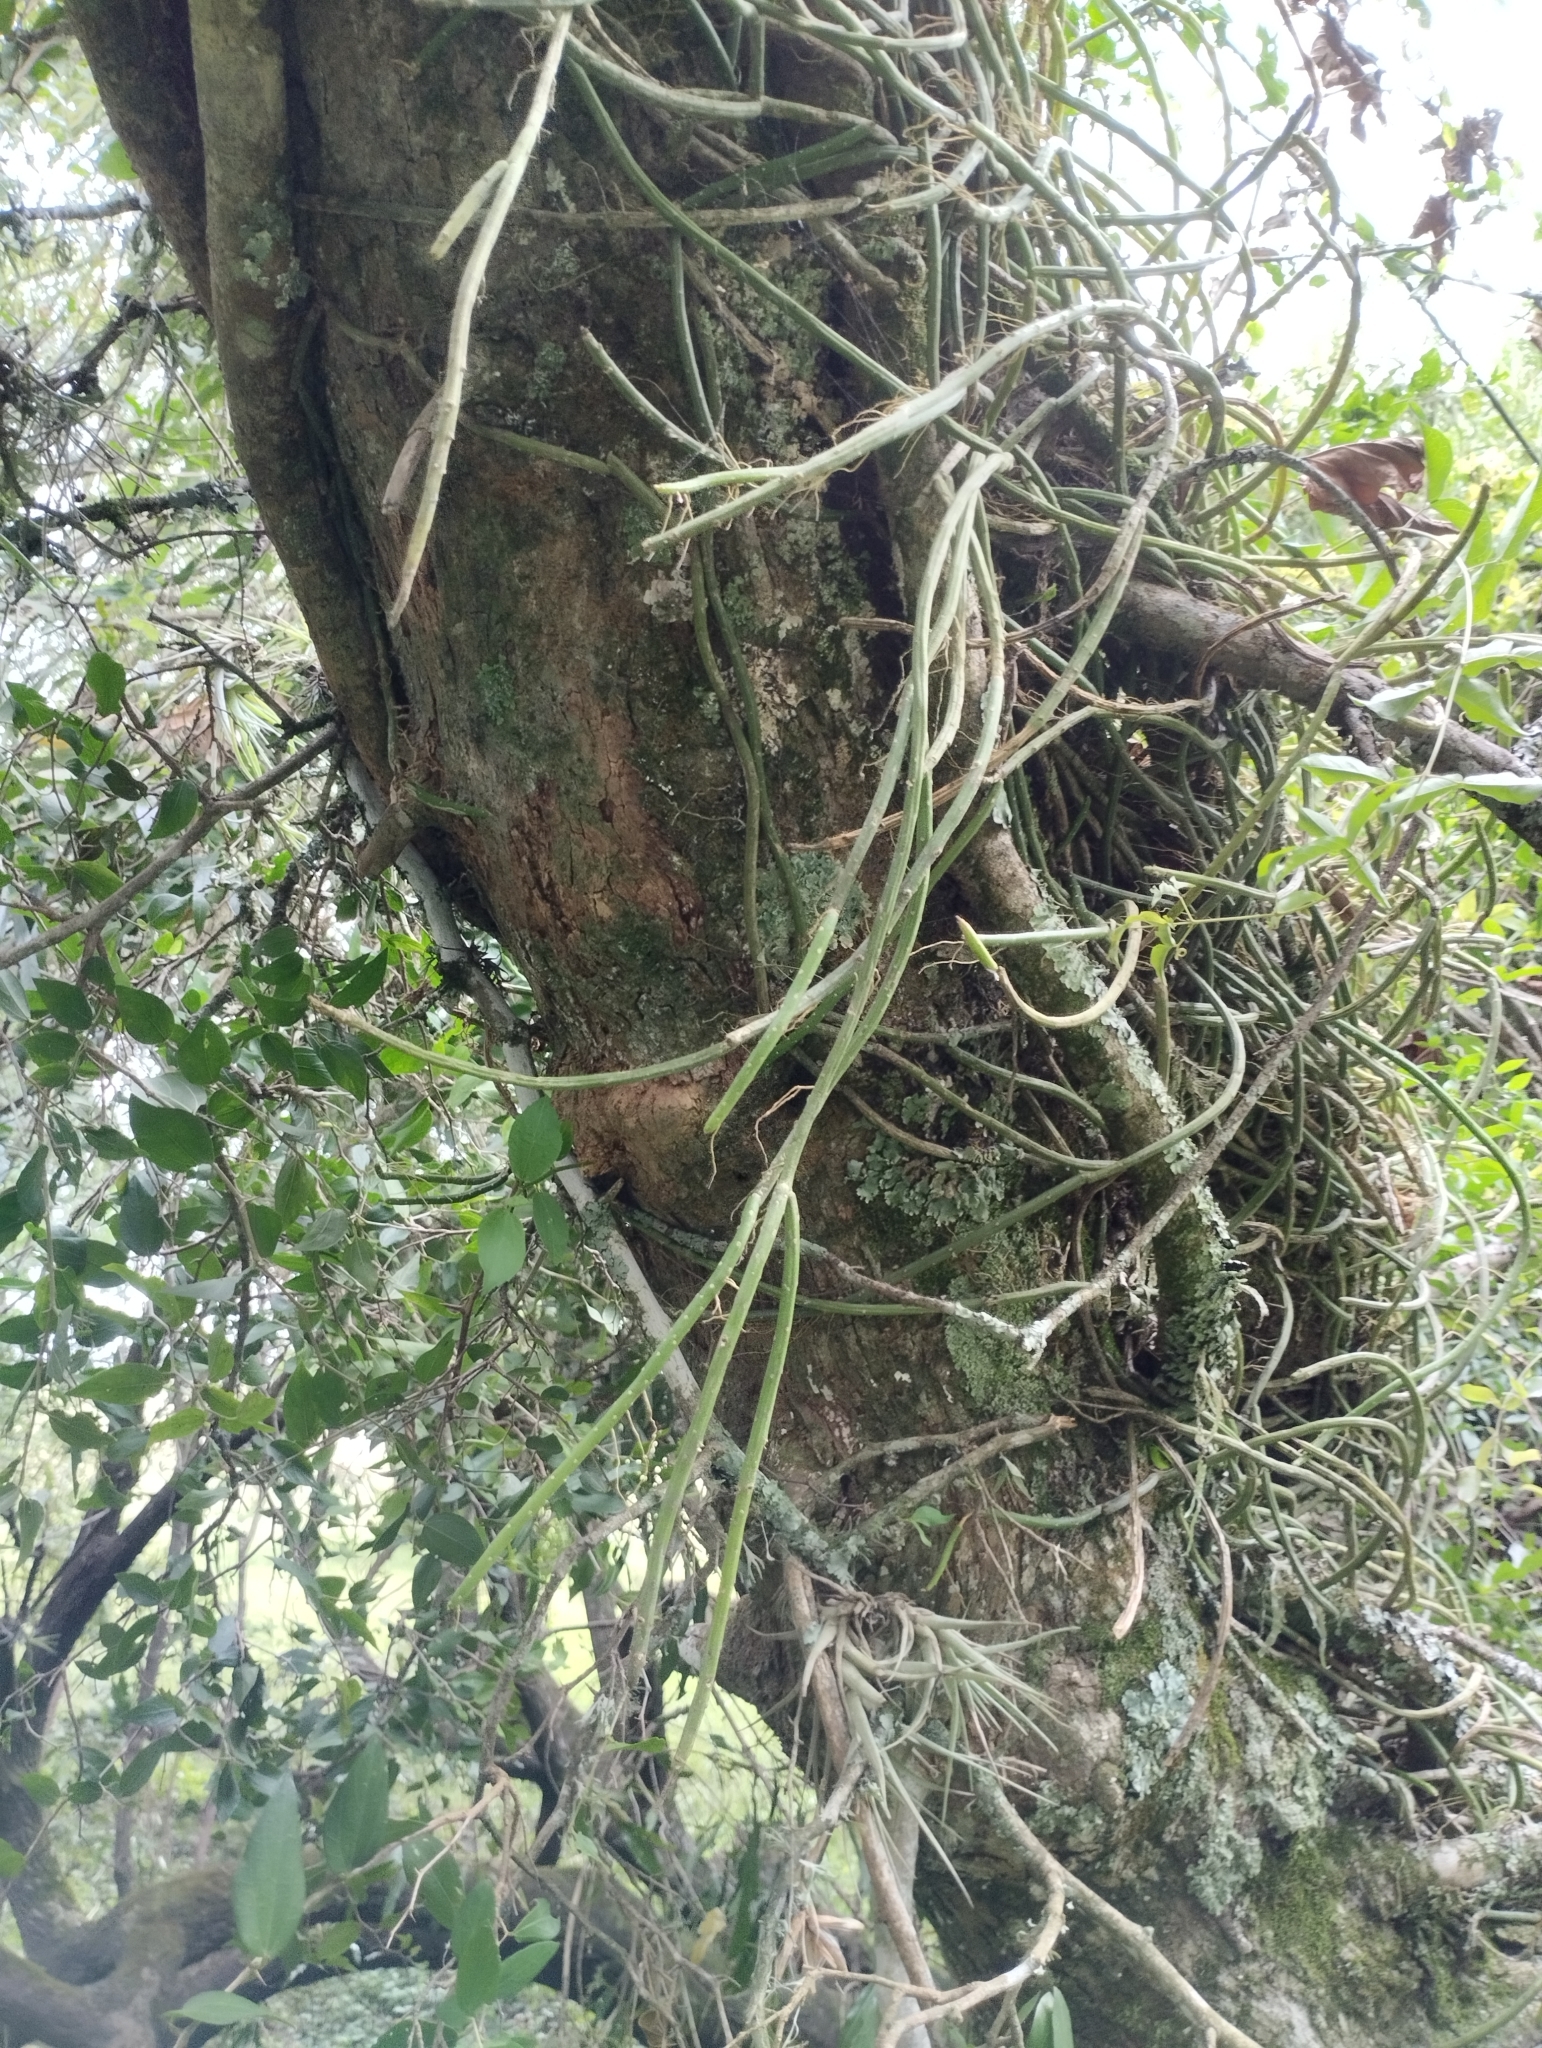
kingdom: Plantae
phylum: Tracheophyta
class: Magnoliopsida
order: Caryophyllales
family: Cactaceae
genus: Lepismium
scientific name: Lepismium lumbricoides
